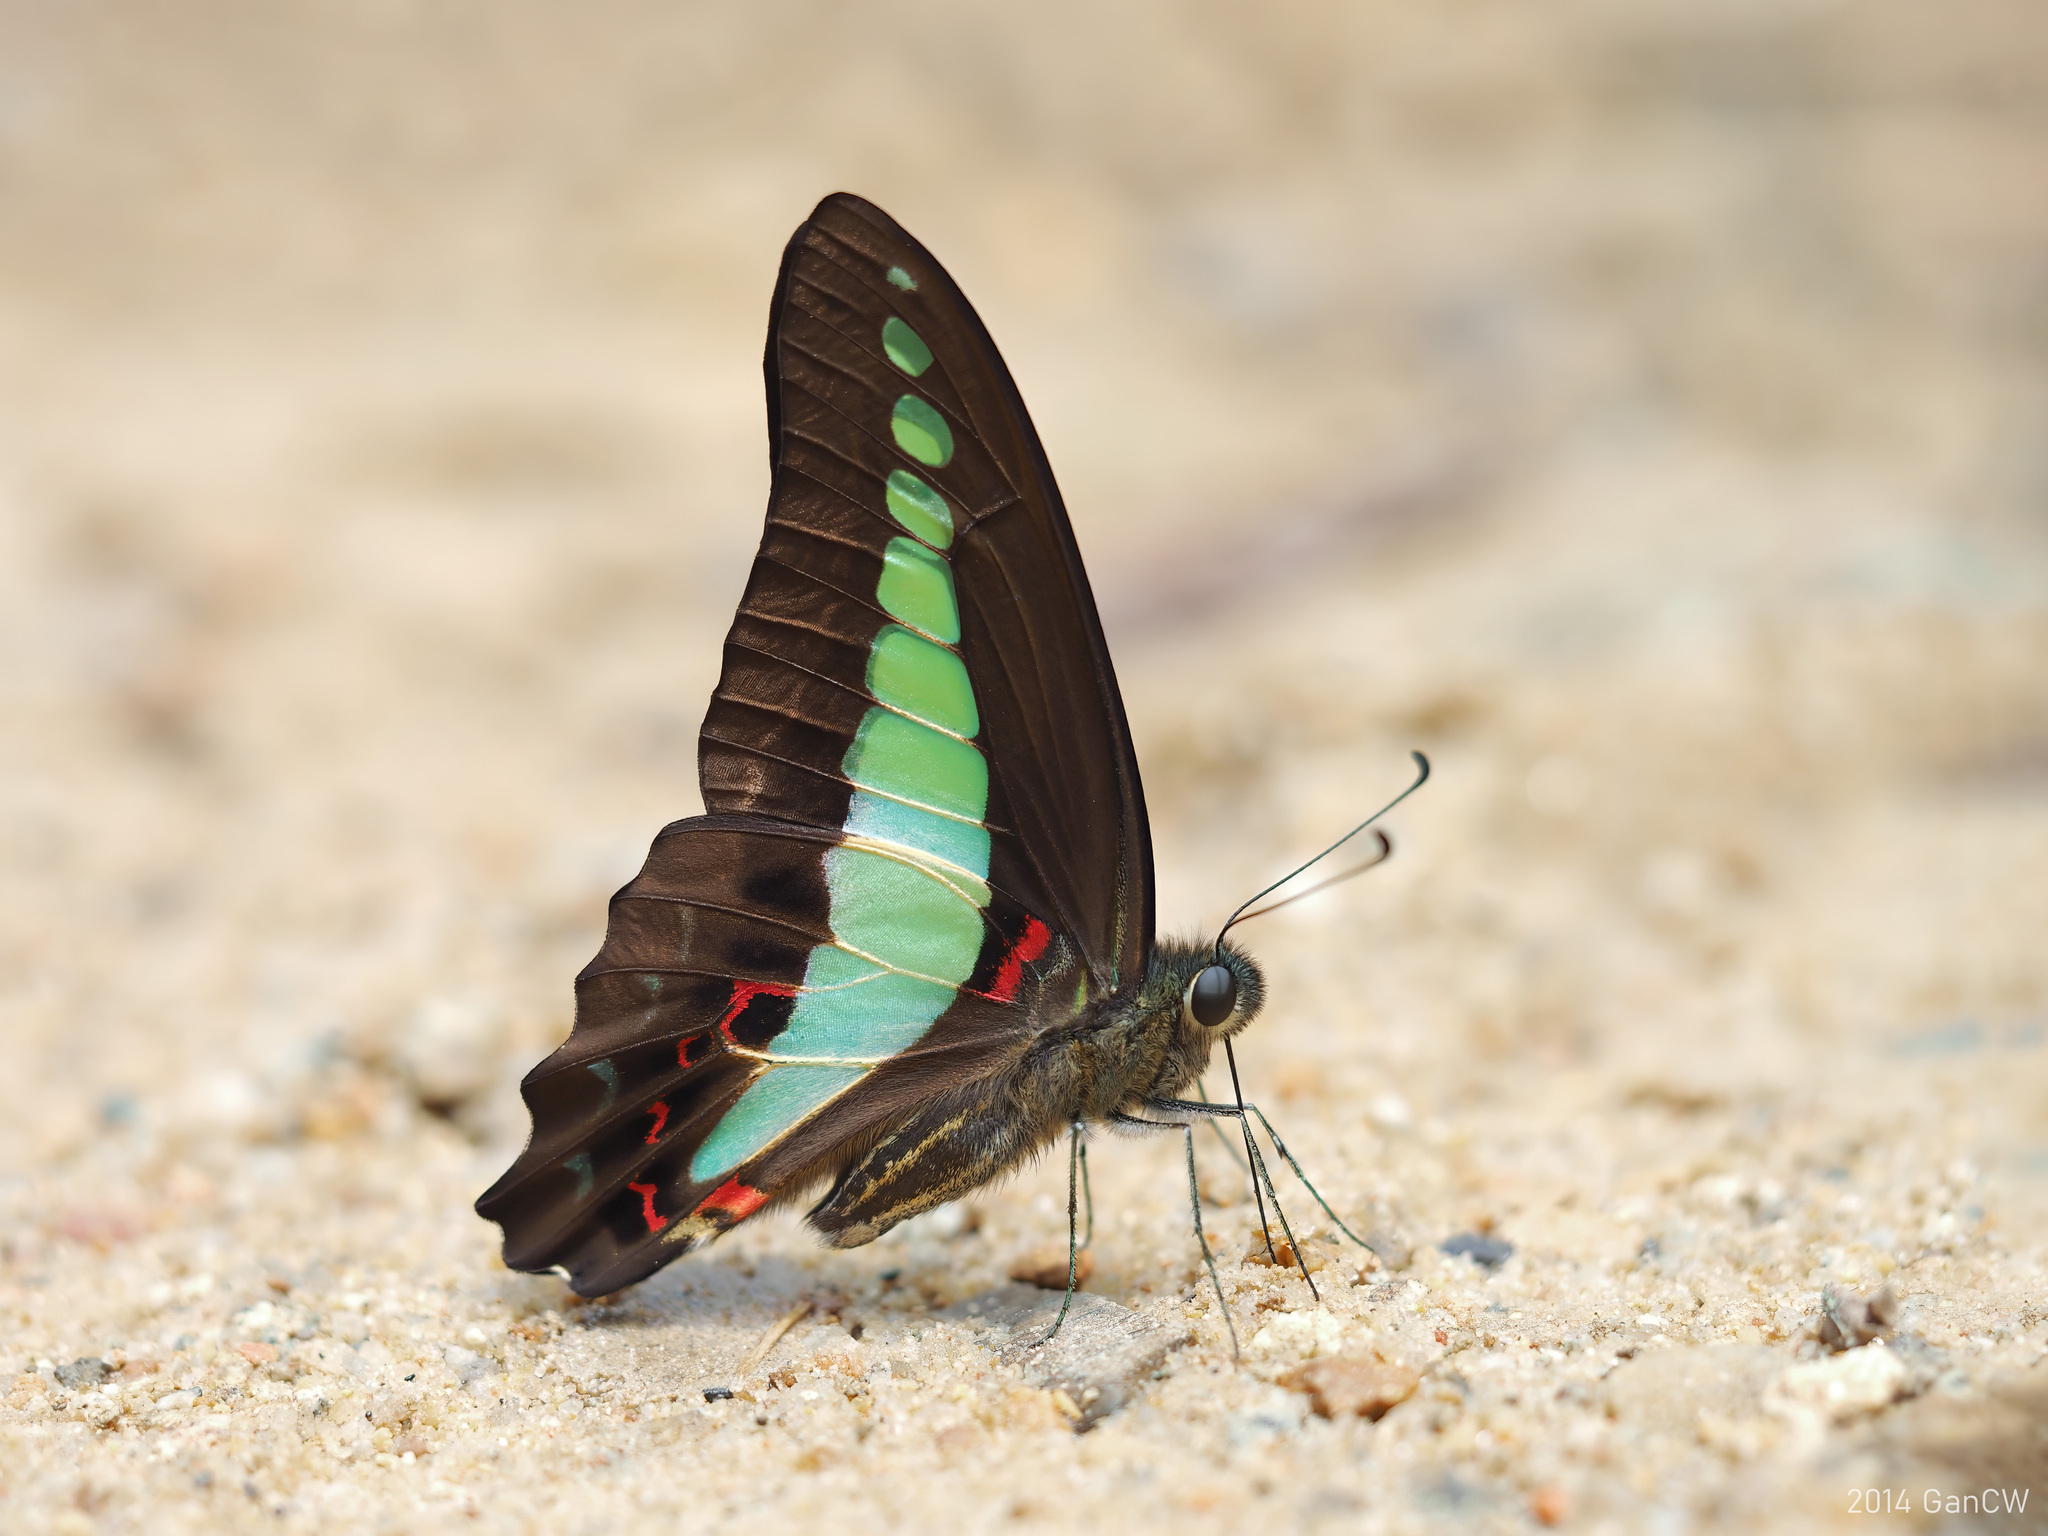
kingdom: Fungi
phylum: Ascomycota
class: Sordariomycetes
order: Microascales
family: Microascaceae
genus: Graphium
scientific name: Graphium sarpedon
